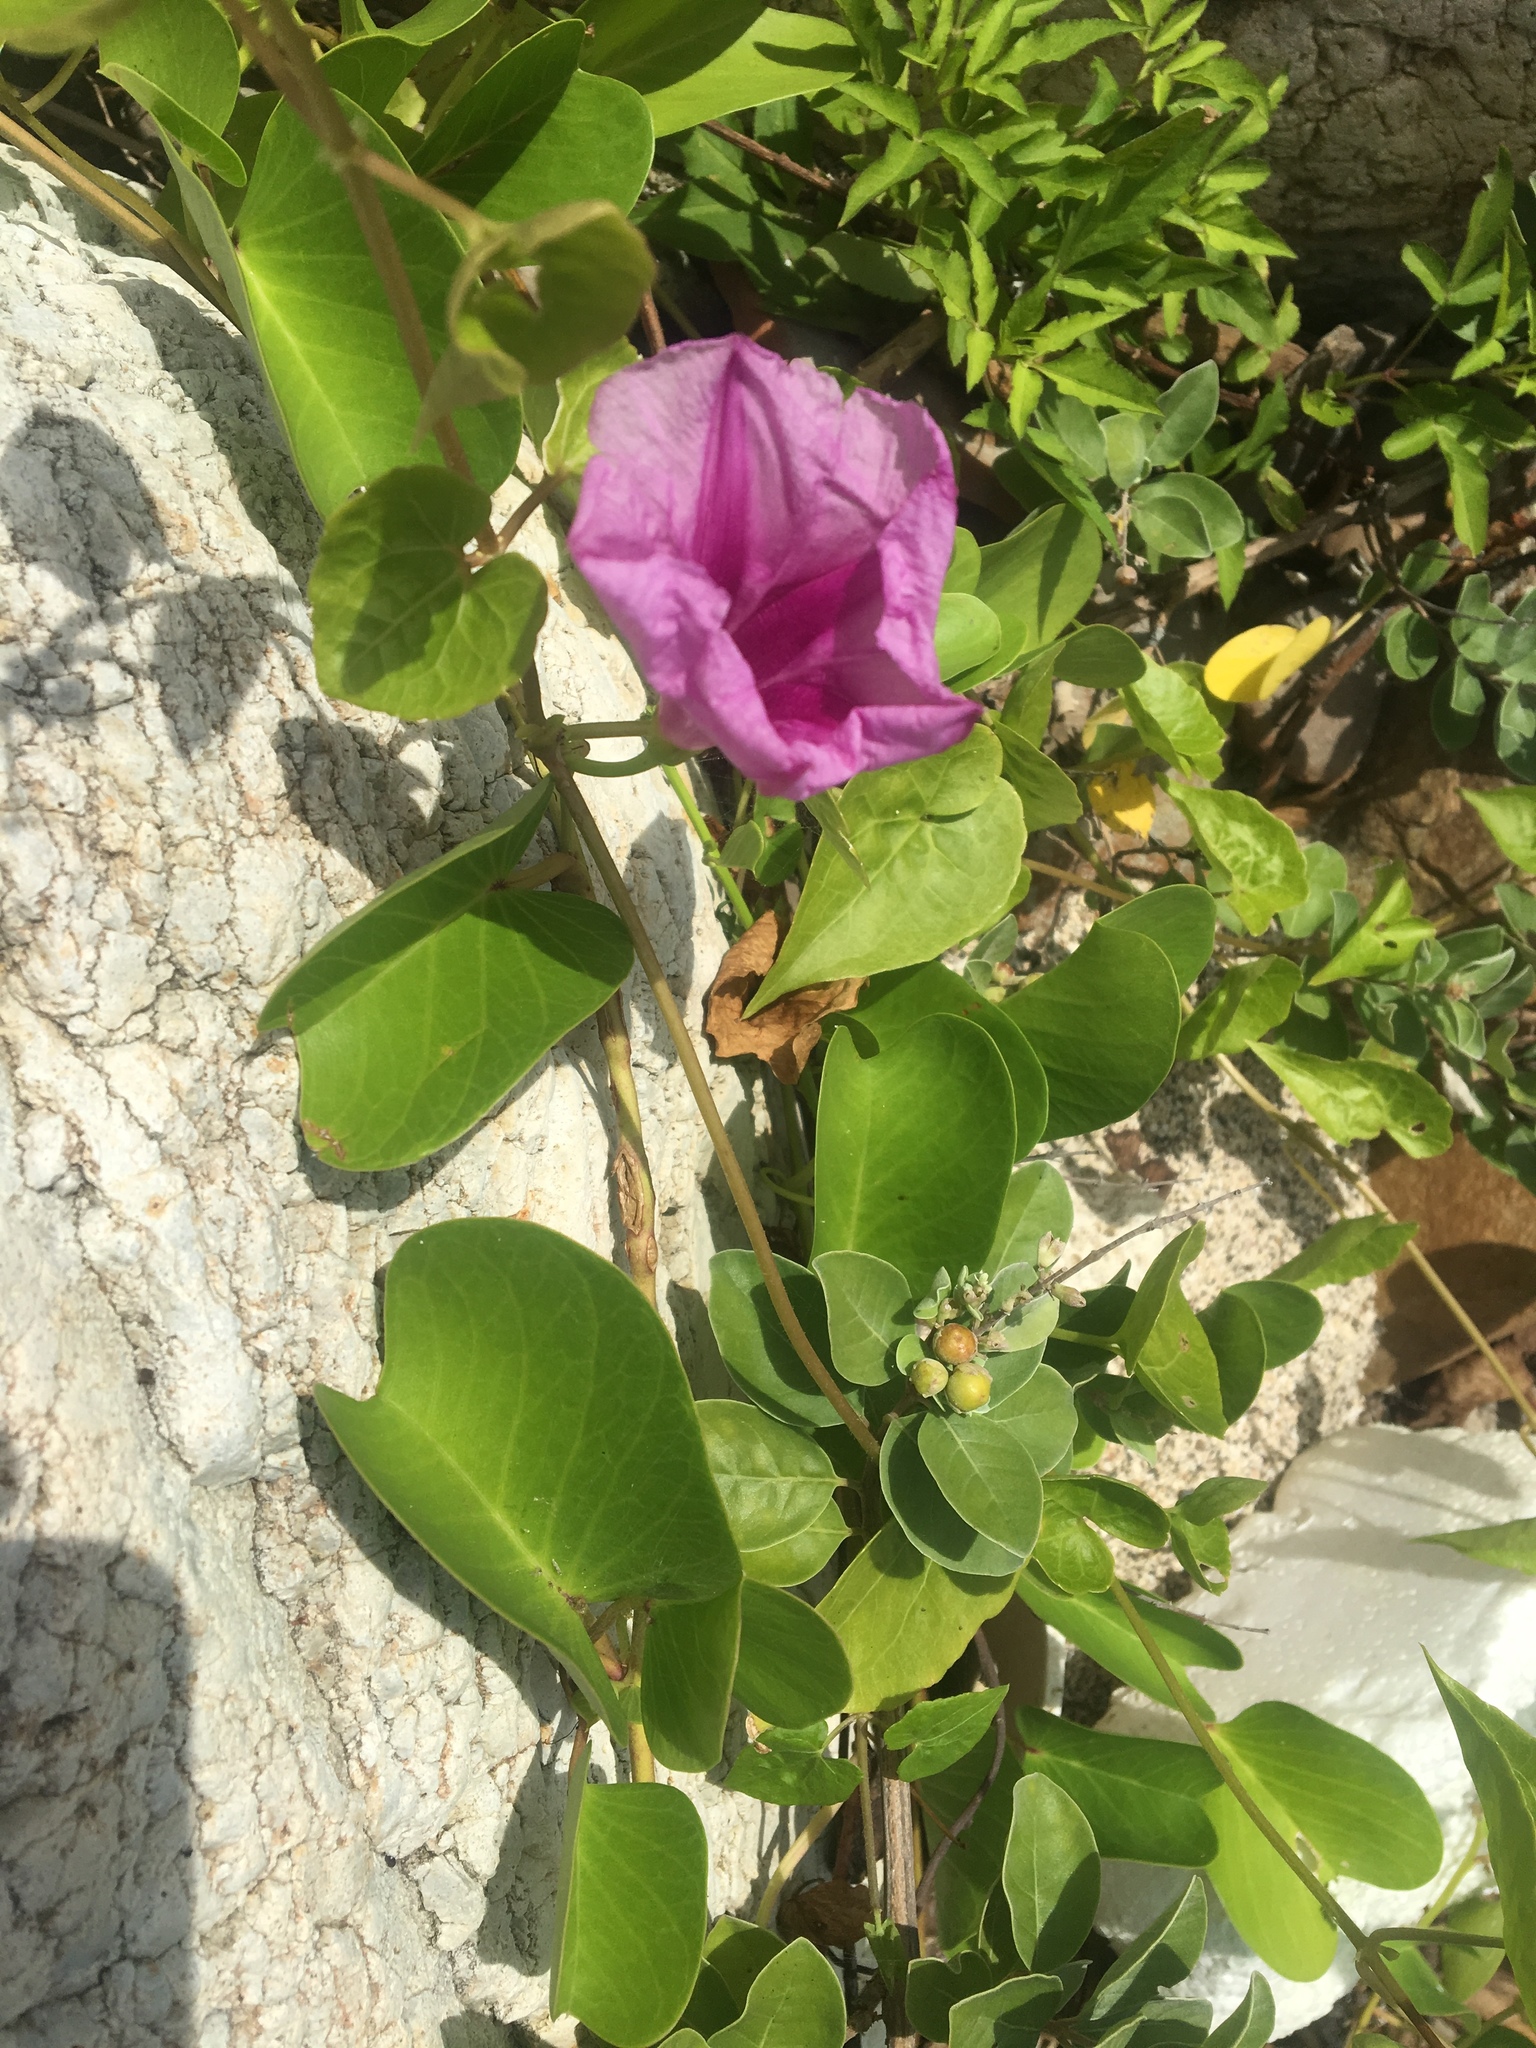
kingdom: Plantae
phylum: Tracheophyta
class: Magnoliopsida
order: Solanales
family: Convolvulaceae
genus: Ipomoea
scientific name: Ipomoea pes-caprae
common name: Beach morning glory
